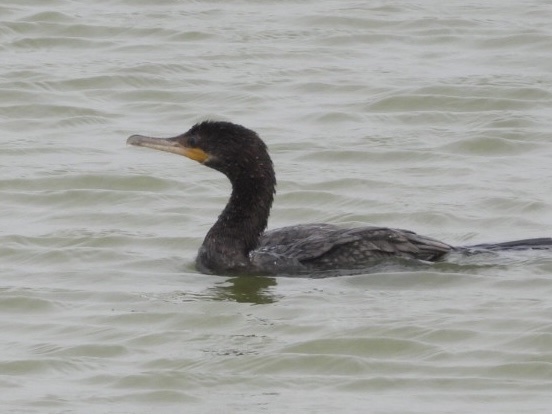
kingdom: Animalia
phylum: Chordata
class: Aves
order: Suliformes
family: Phalacrocoracidae
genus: Phalacrocorax
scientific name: Phalacrocorax brasilianus
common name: Neotropic cormorant
